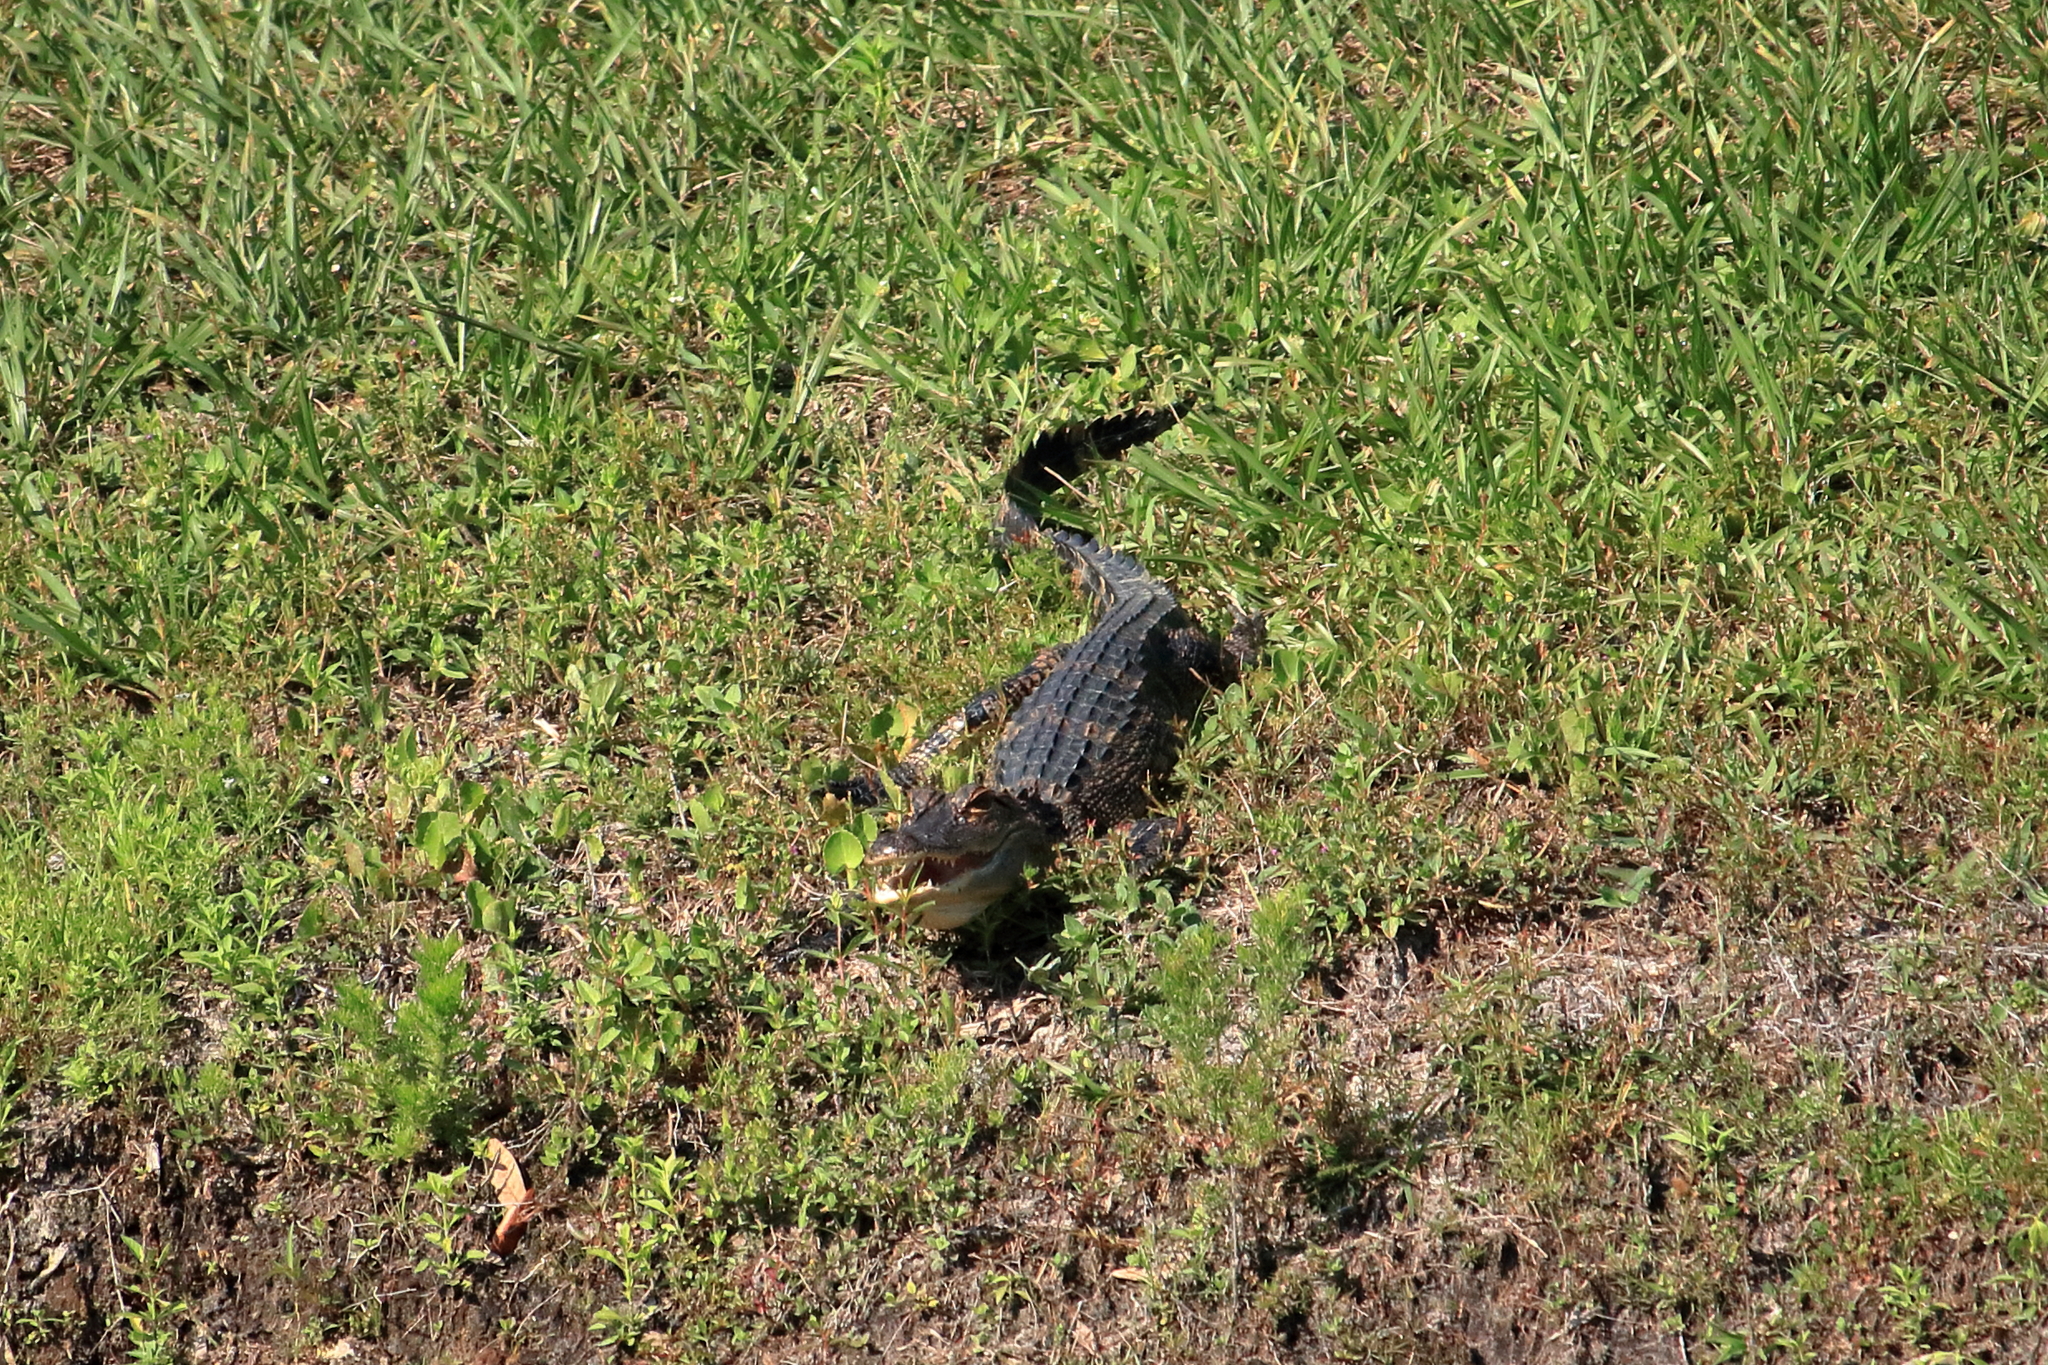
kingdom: Animalia
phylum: Chordata
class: Crocodylia
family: Alligatoridae
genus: Alligator
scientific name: Alligator mississippiensis
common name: American alligator
